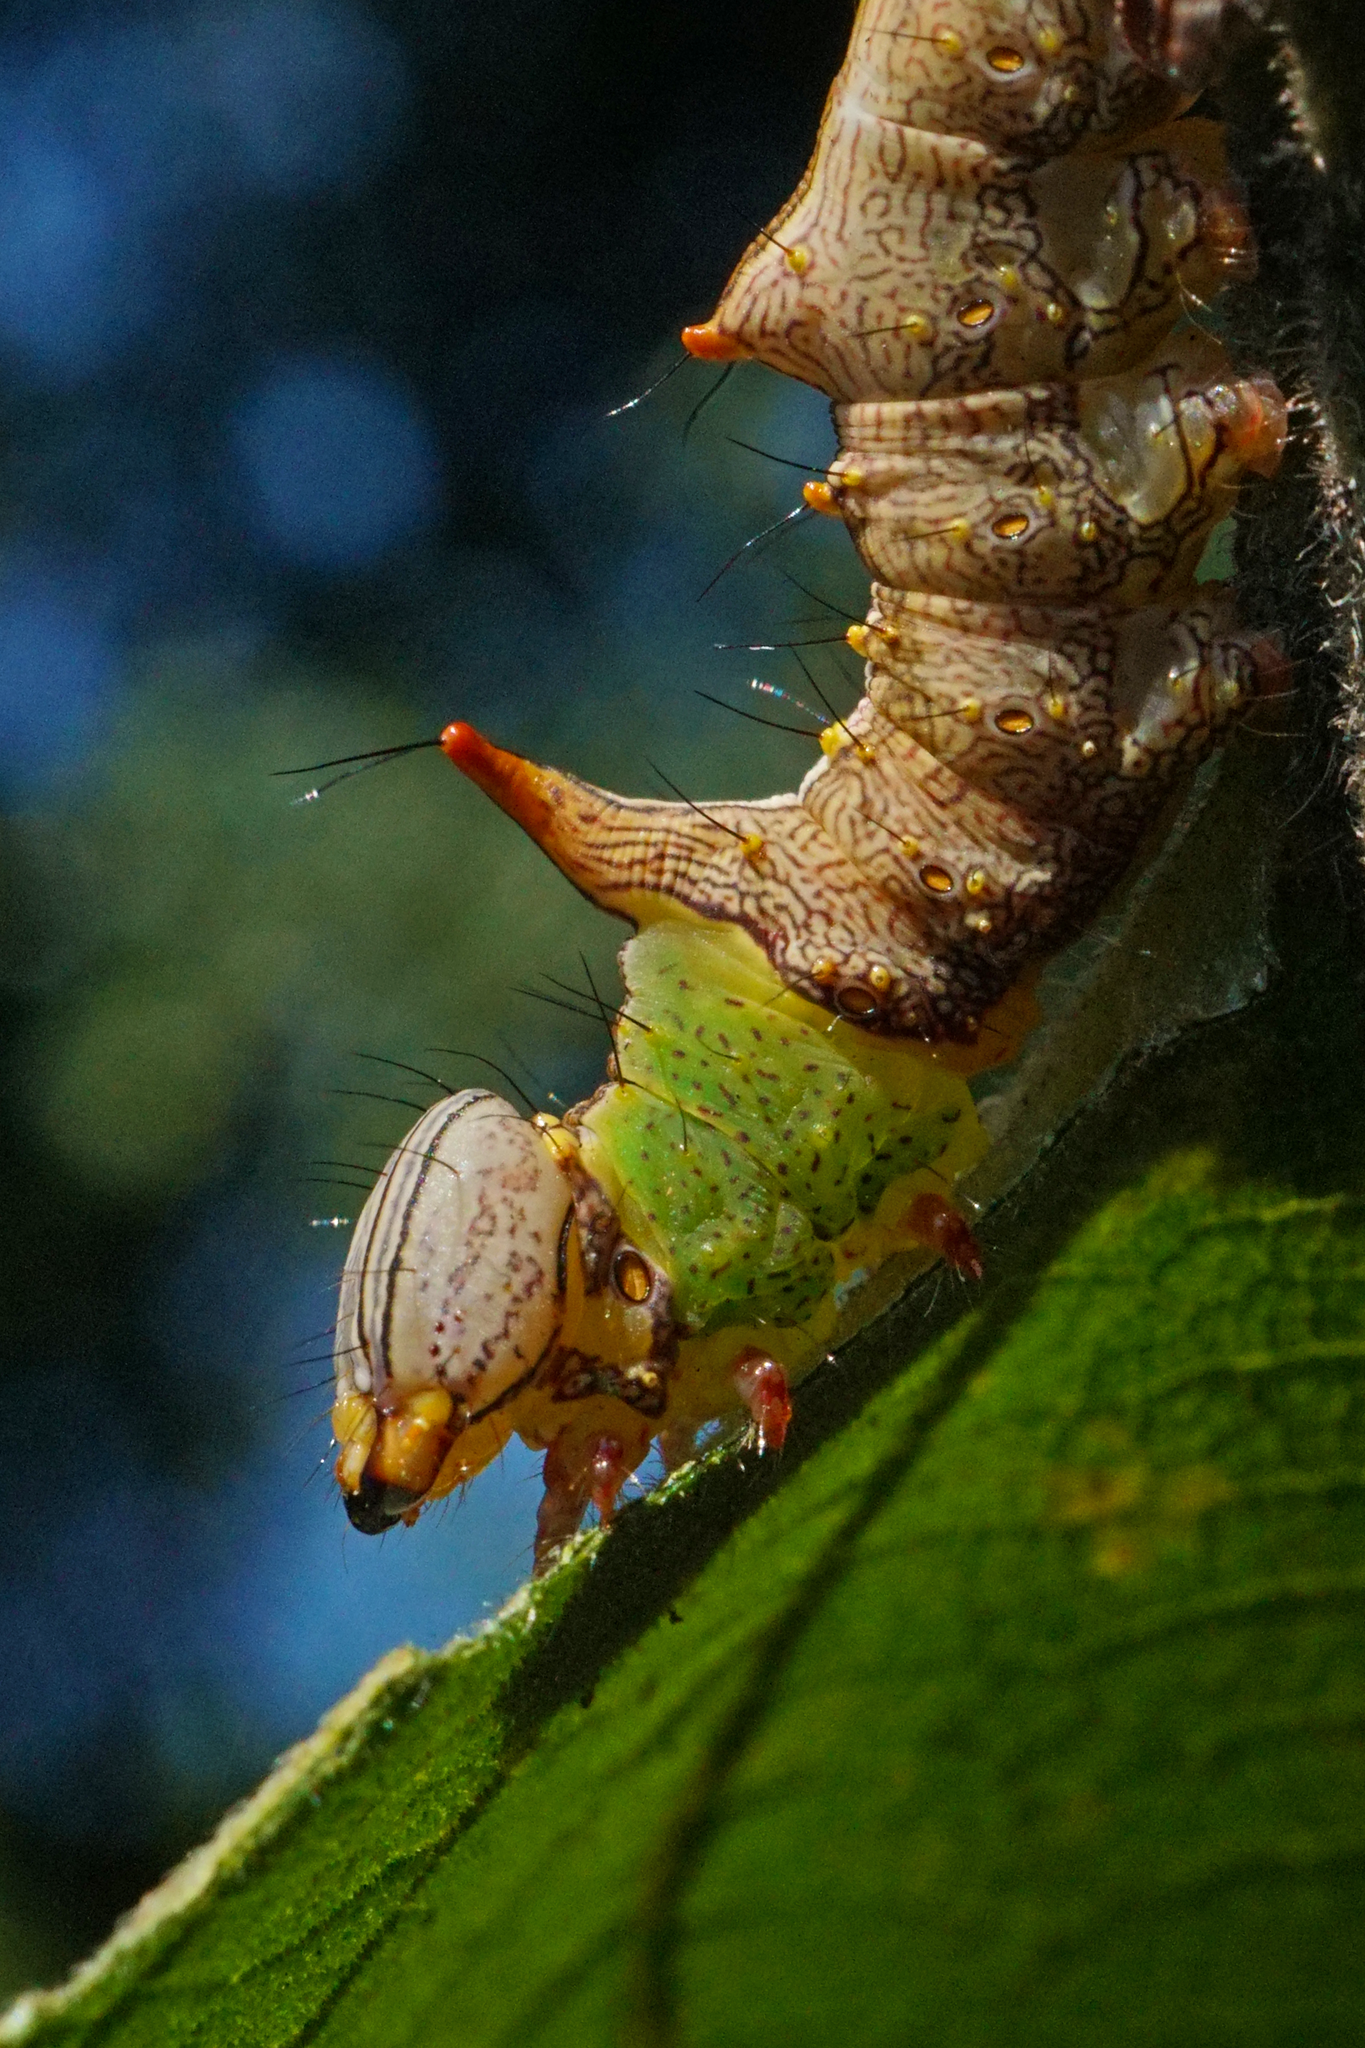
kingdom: Animalia
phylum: Arthropoda
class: Insecta
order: Lepidoptera
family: Notodontidae
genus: Schizura
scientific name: Schizura ipomaeae
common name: Morning-glory prominent
